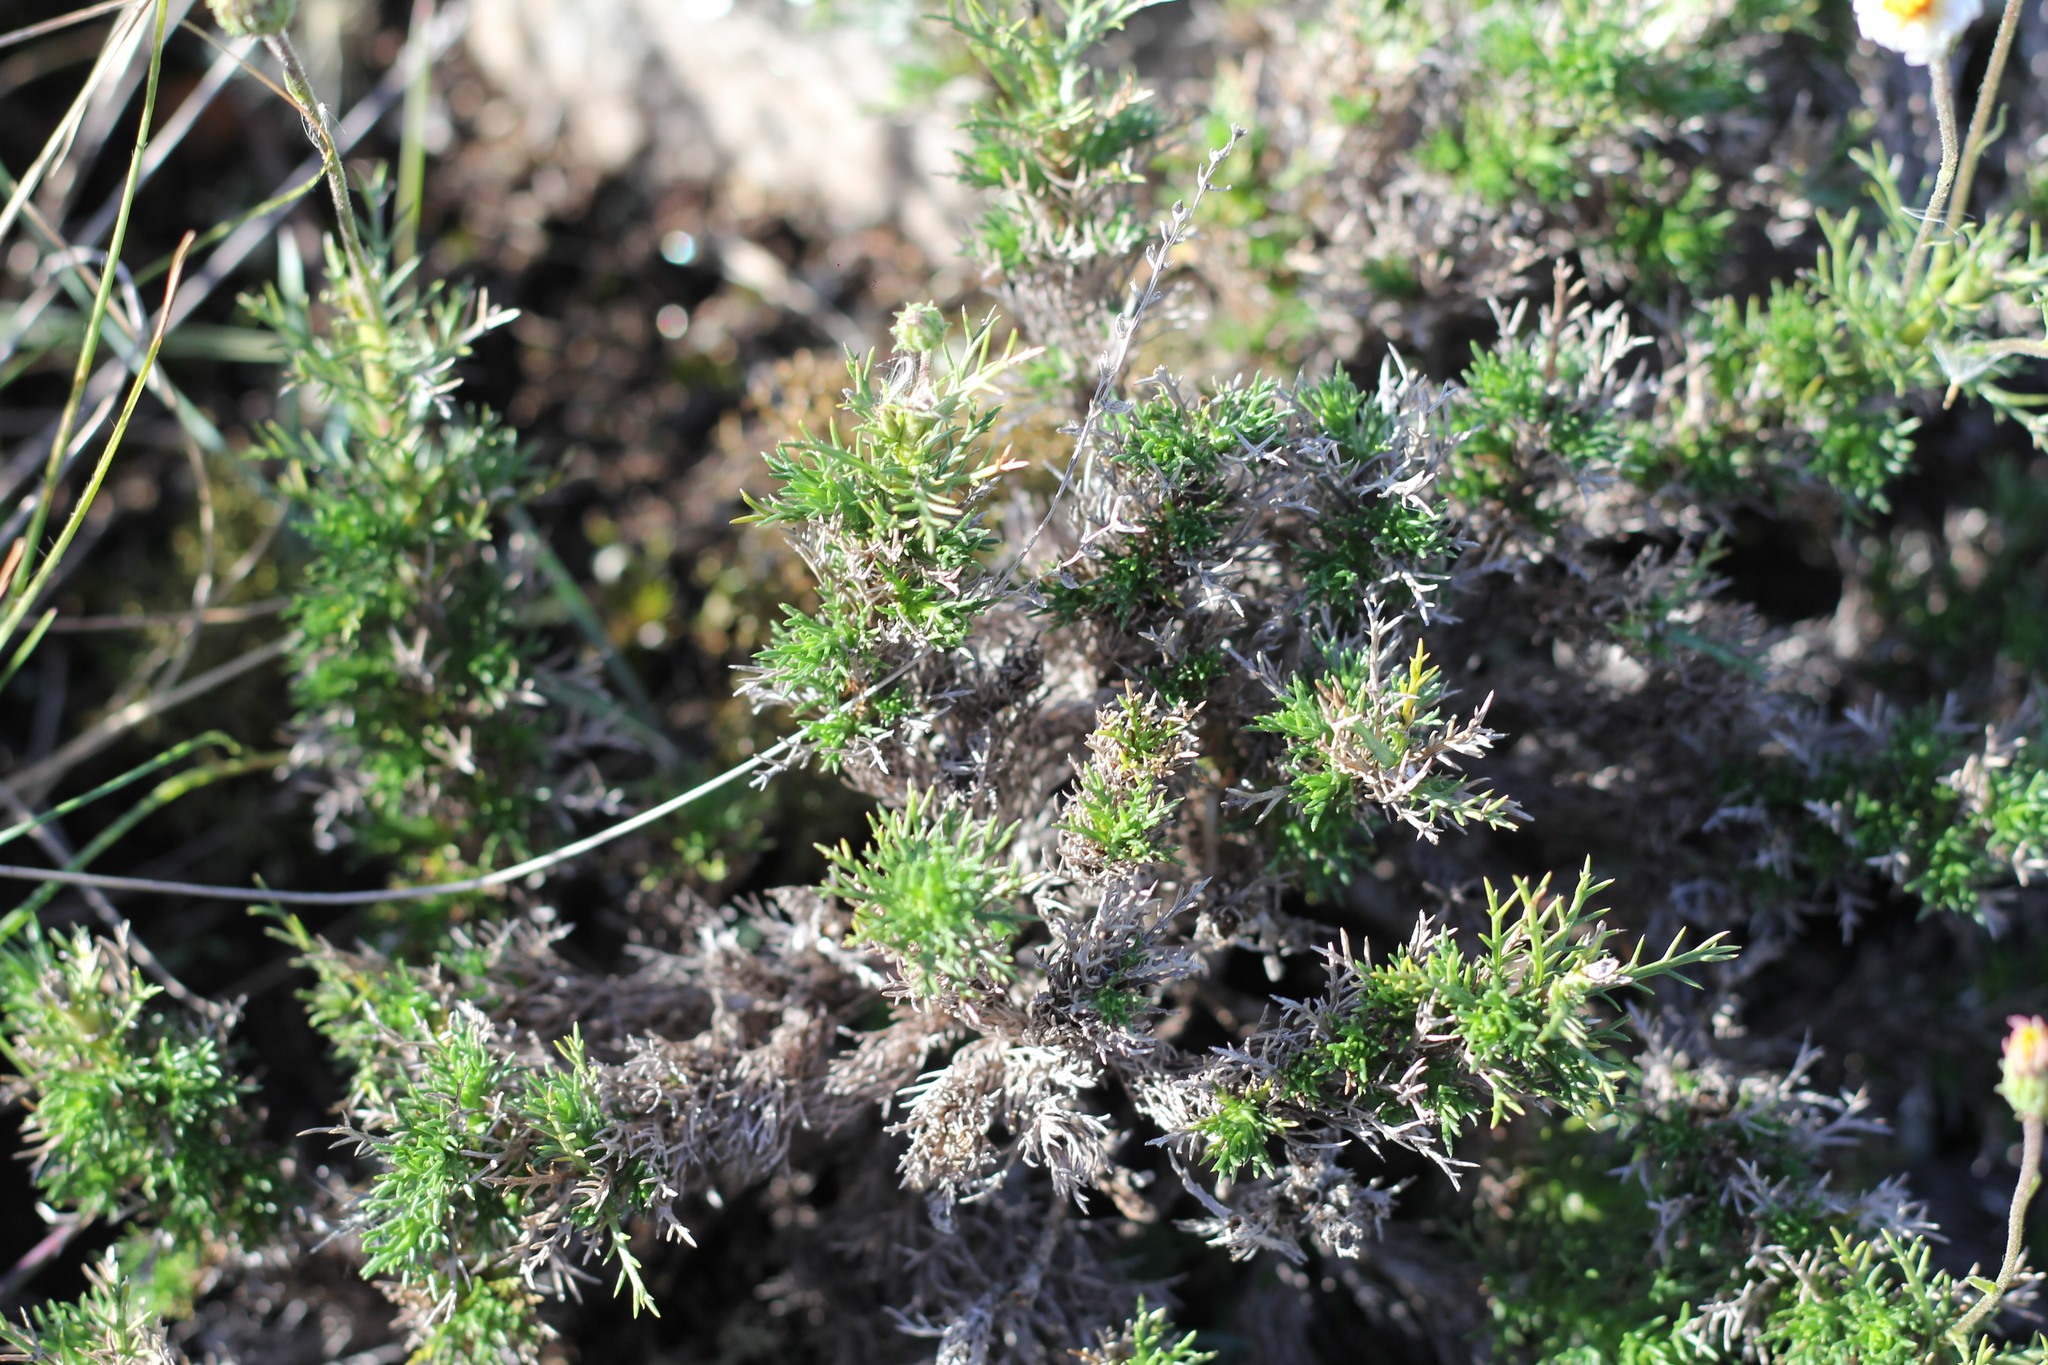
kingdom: Plantae
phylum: Tracheophyta
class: Magnoliopsida
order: Asterales
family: Asteraceae
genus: Sommerfeltia
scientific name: Sommerfeltia spinulosa
